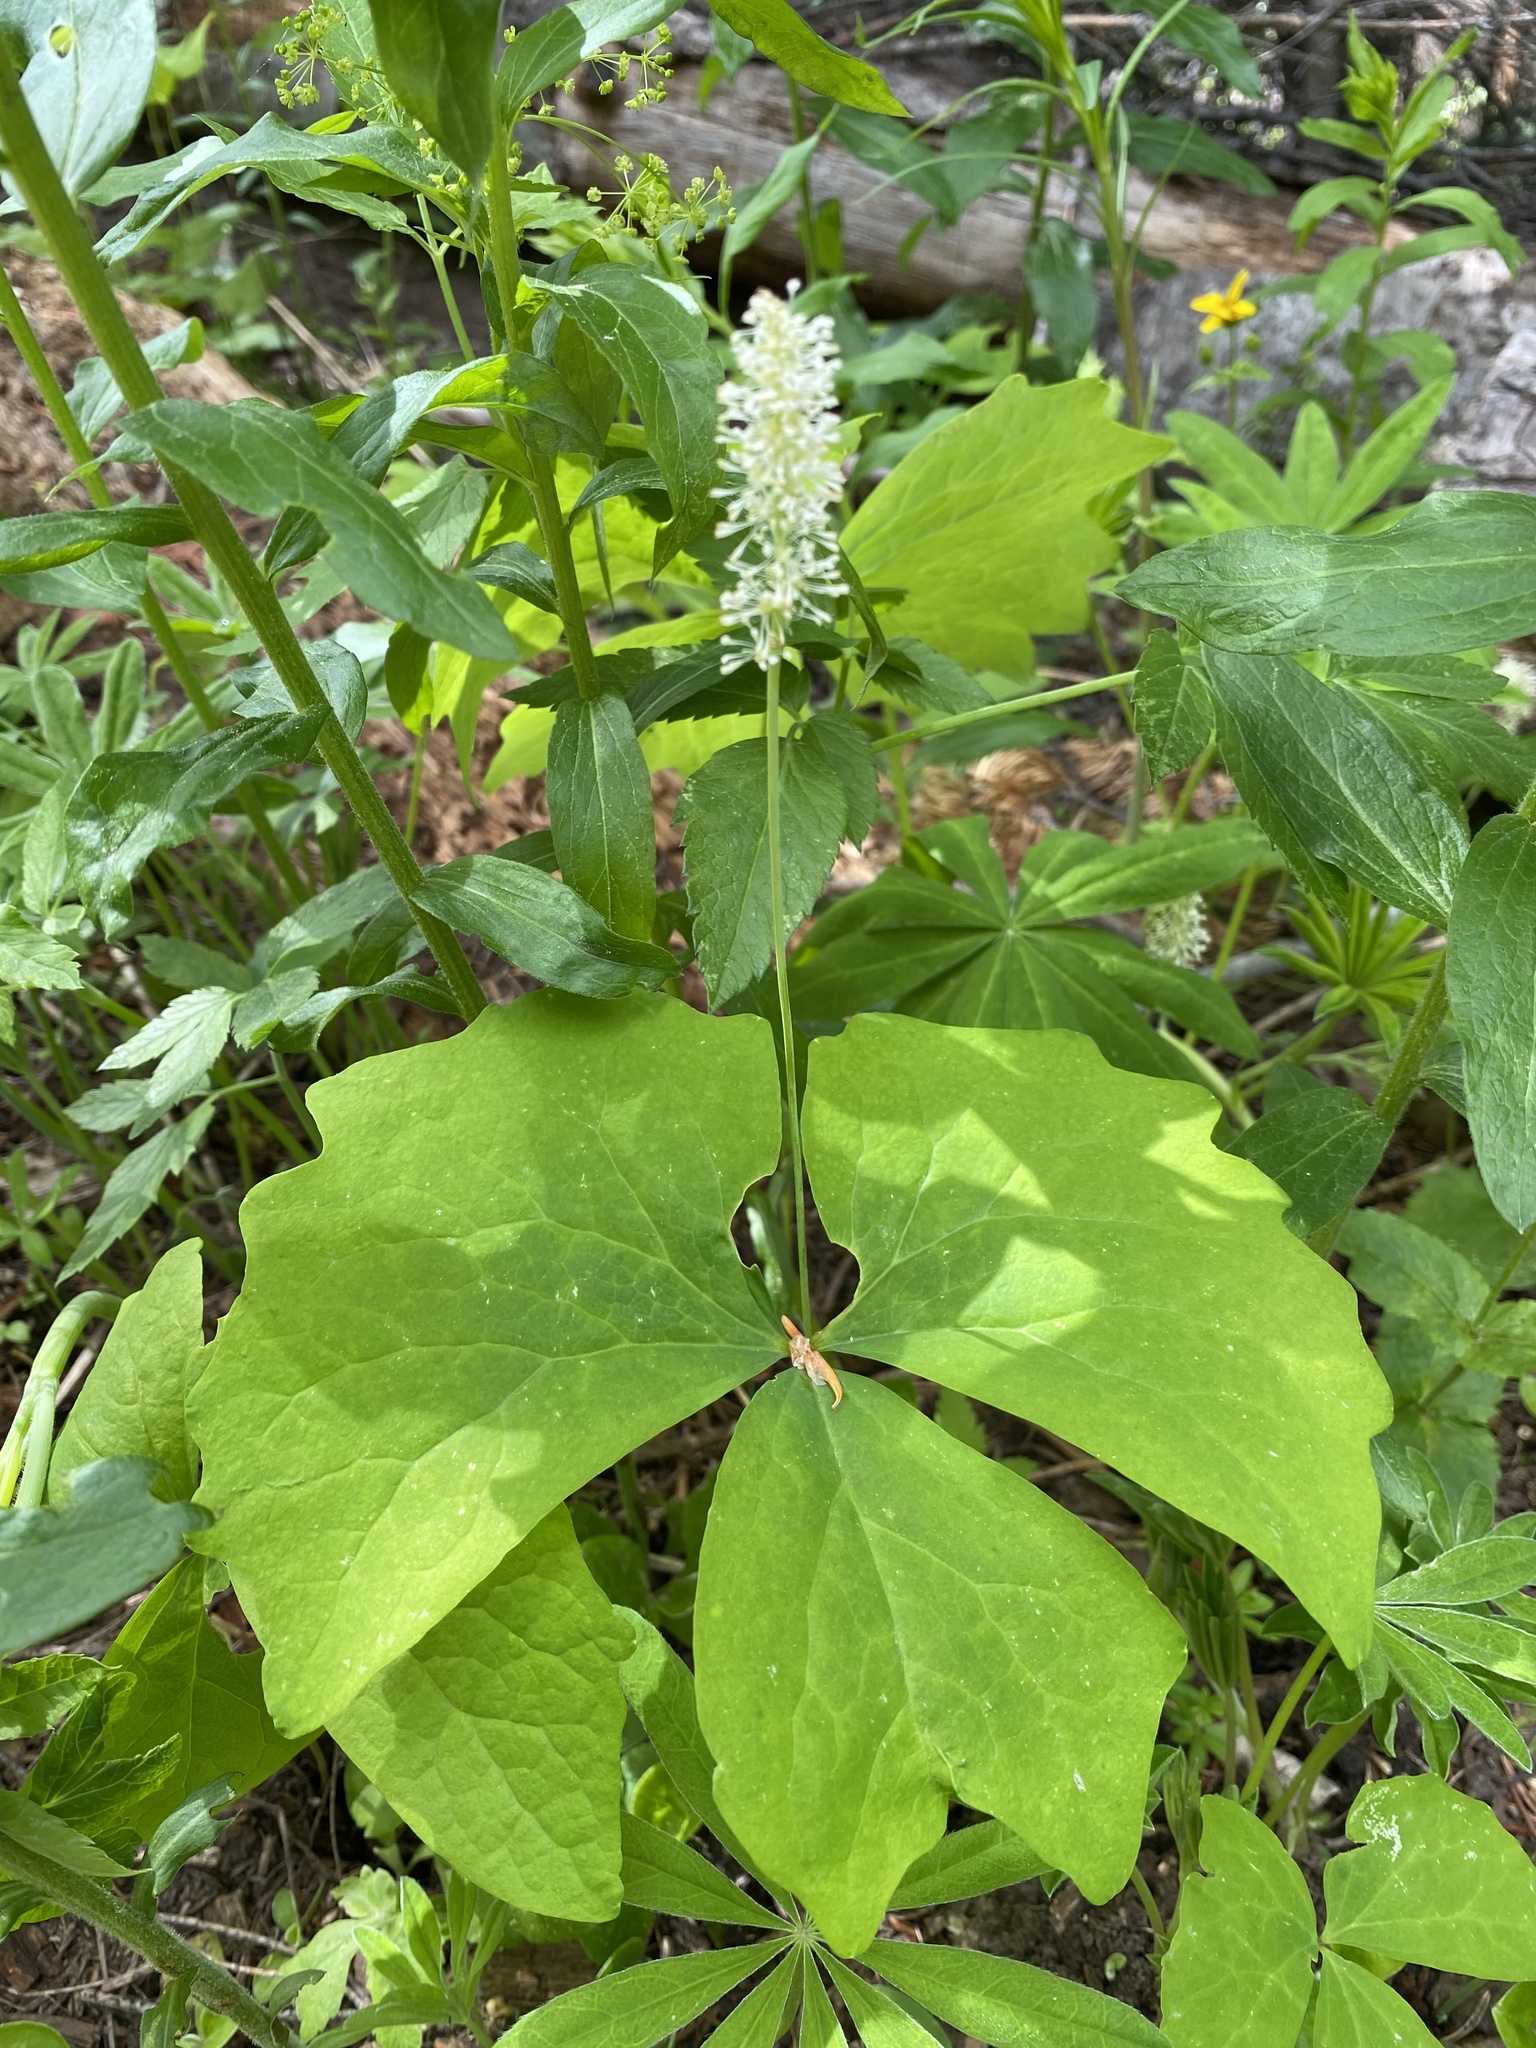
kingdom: Plantae
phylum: Tracheophyta
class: Magnoliopsida
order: Ranunculales
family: Berberidaceae
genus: Achlys
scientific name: Achlys triphylla
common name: Vanilla-leaf
